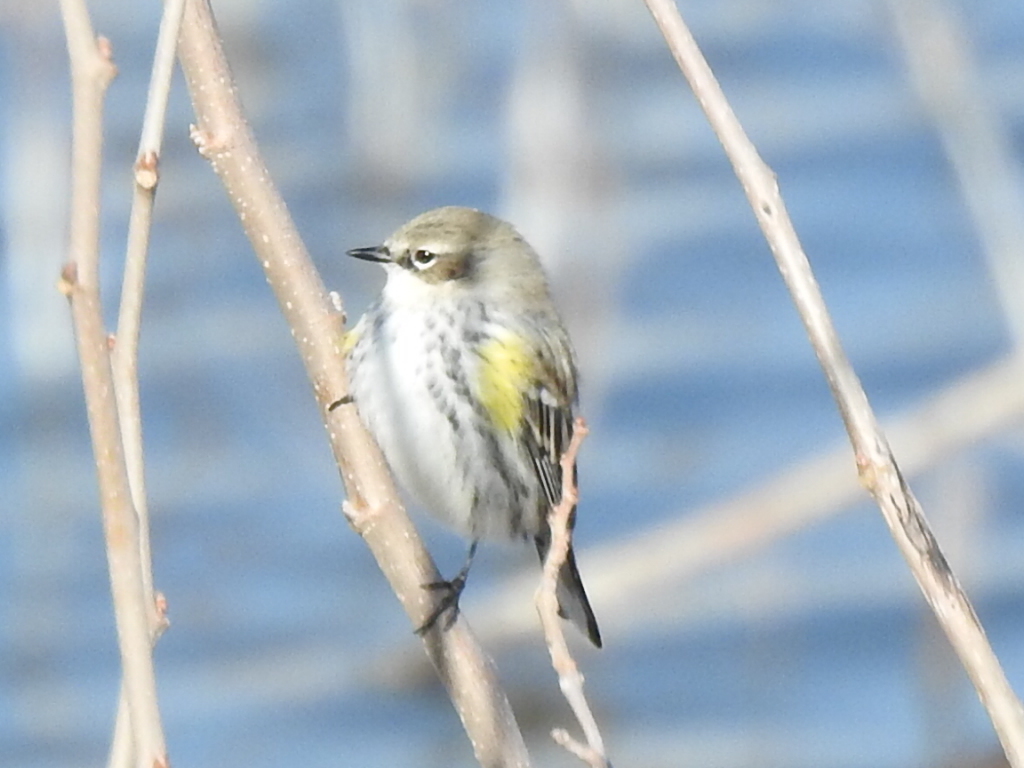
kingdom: Animalia
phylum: Chordata
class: Aves
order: Passeriformes
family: Parulidae
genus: Setophaga
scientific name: Setophaga coronata
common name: Myrtle warbler
